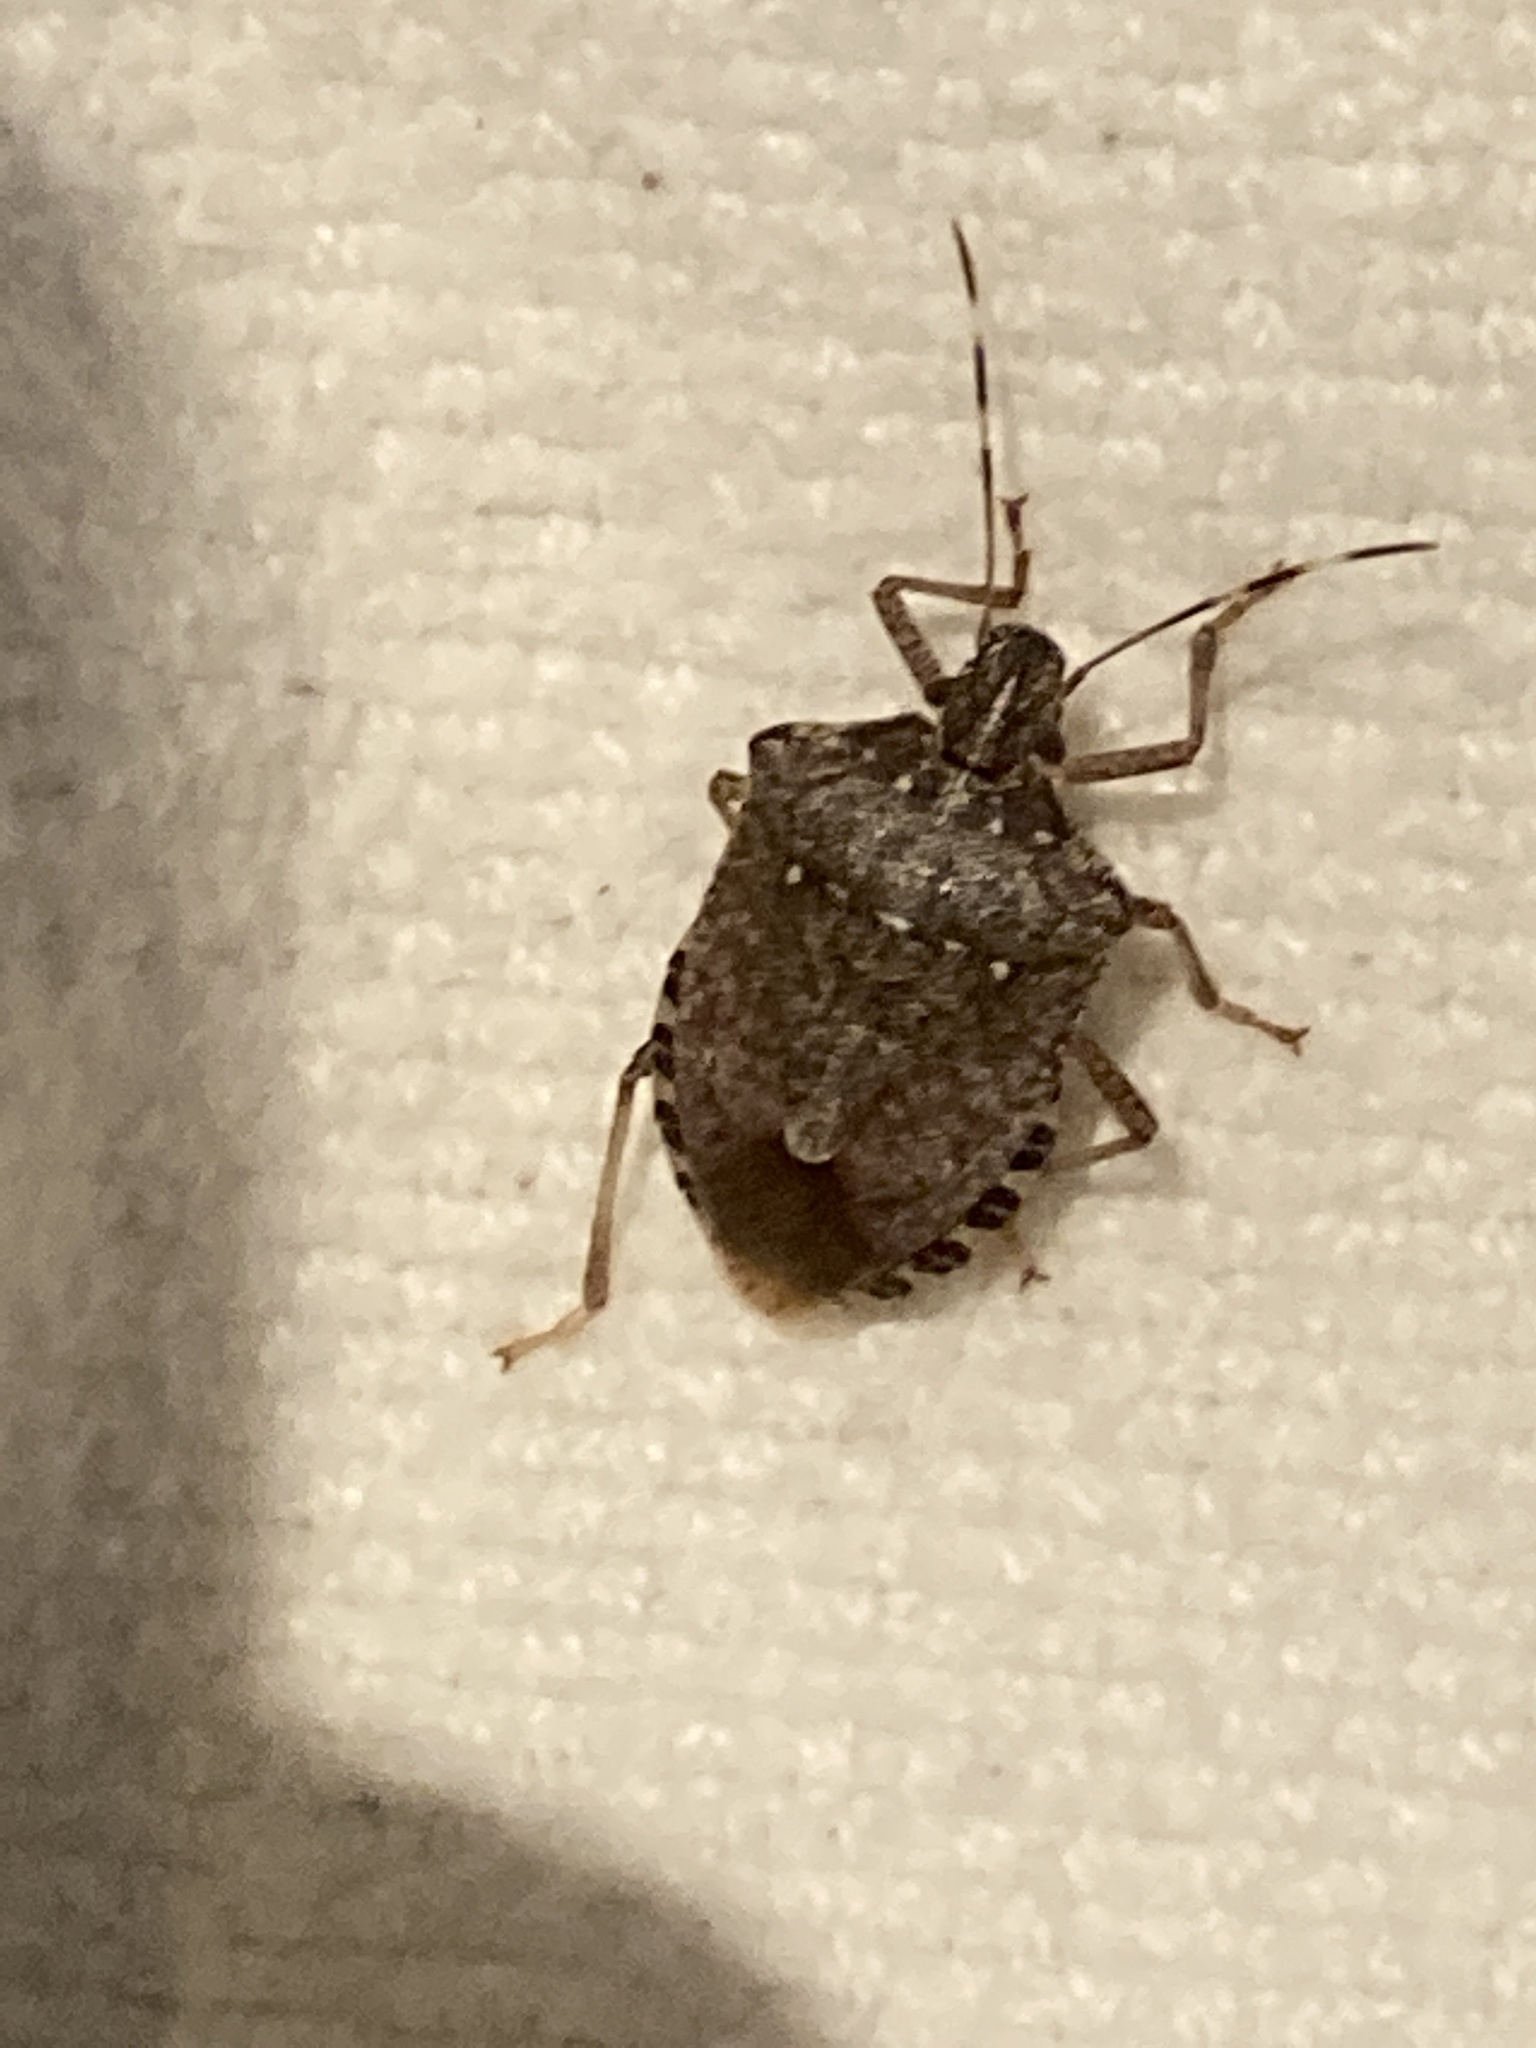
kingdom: Animalia
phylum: Arthropoda
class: Insecta
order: Hemiptera
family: Pentatomidae
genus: Halyomorpha
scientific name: Halyomorpha halys
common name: Brown marmorated stink bug
